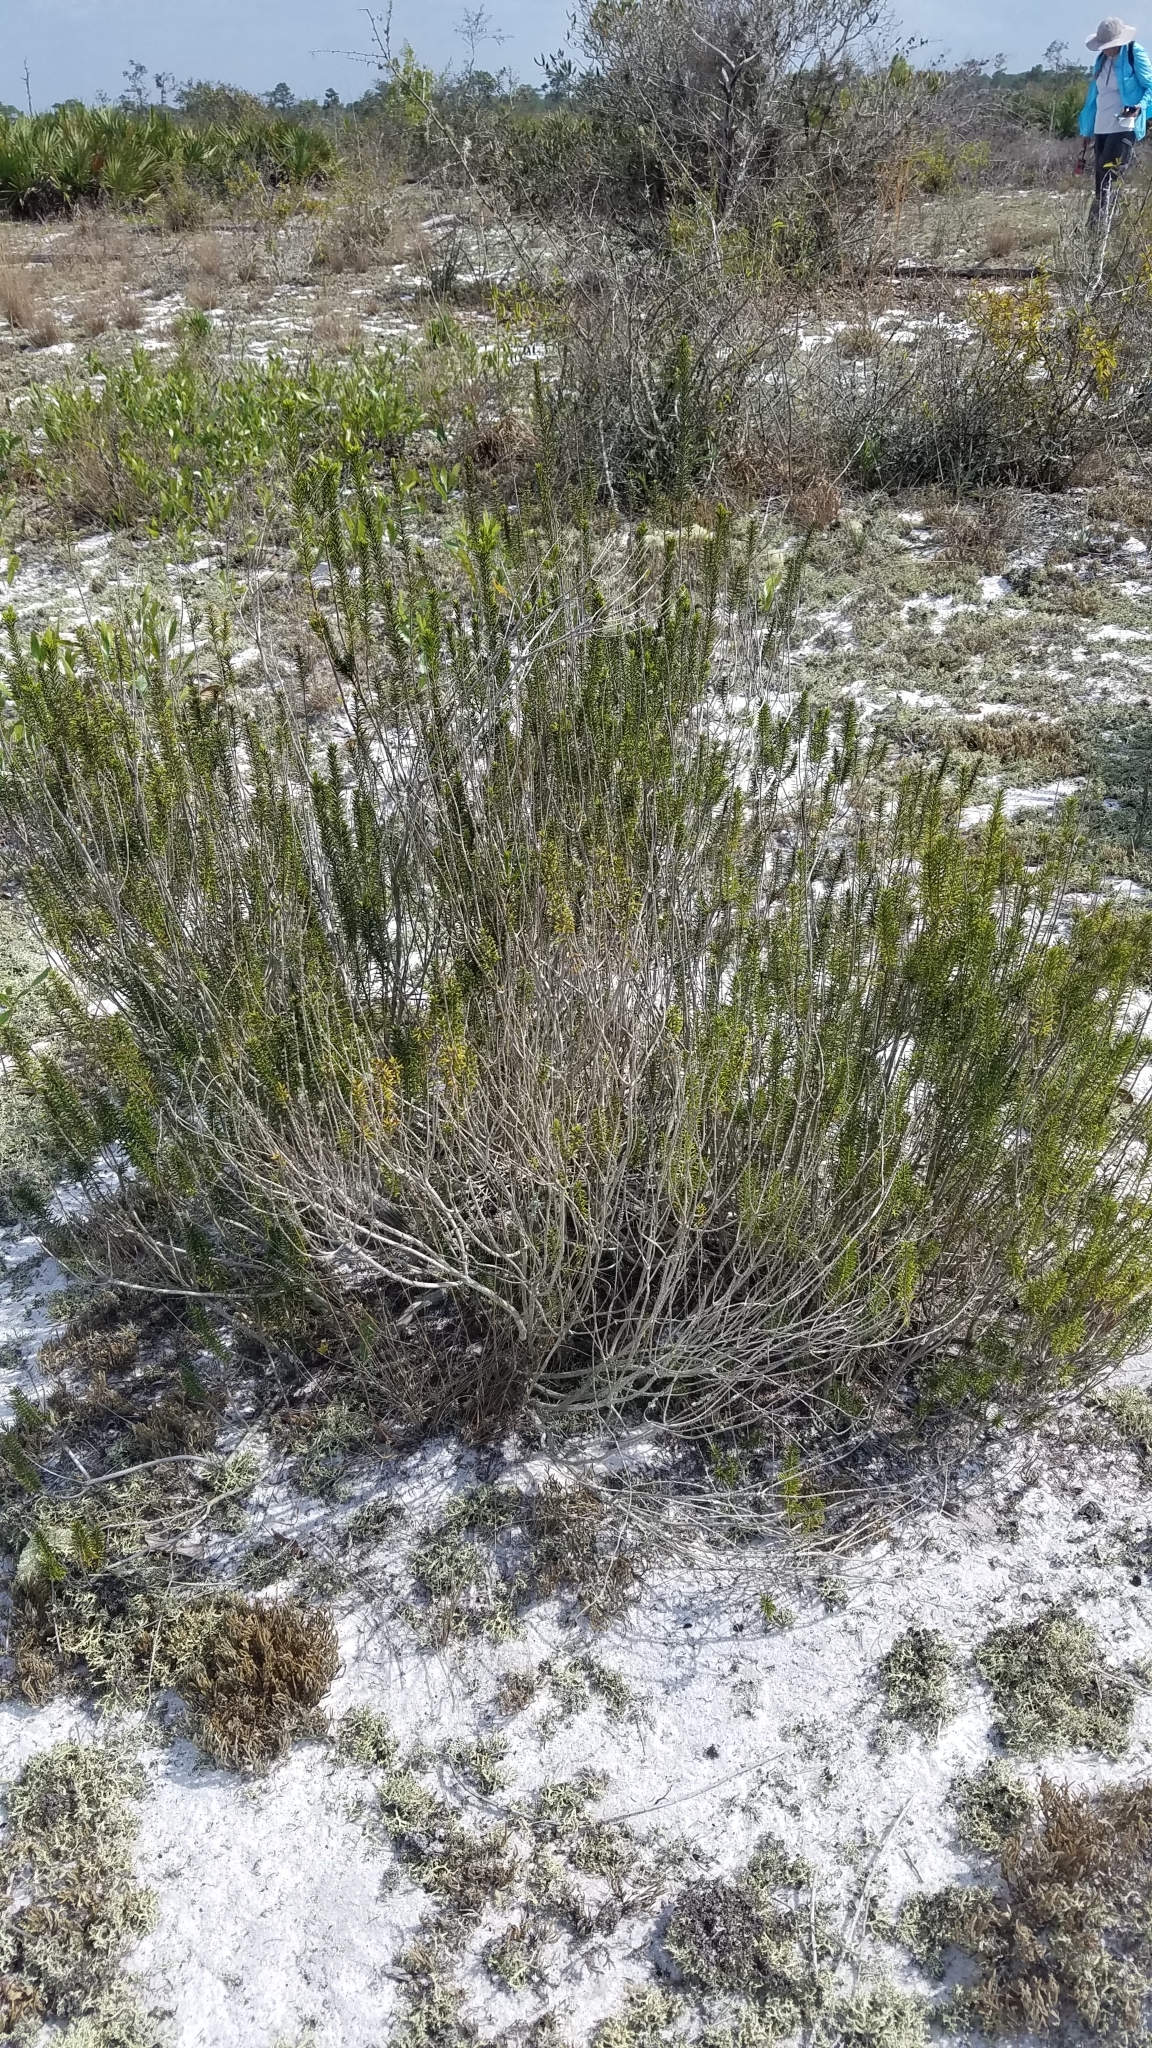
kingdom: Plantae
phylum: Tracheophyta
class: Magnoliopsida
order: Ericales
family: Ericaceae
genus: Ceratiola
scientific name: Ceratiola ericoides
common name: Sandhill-rosemary
